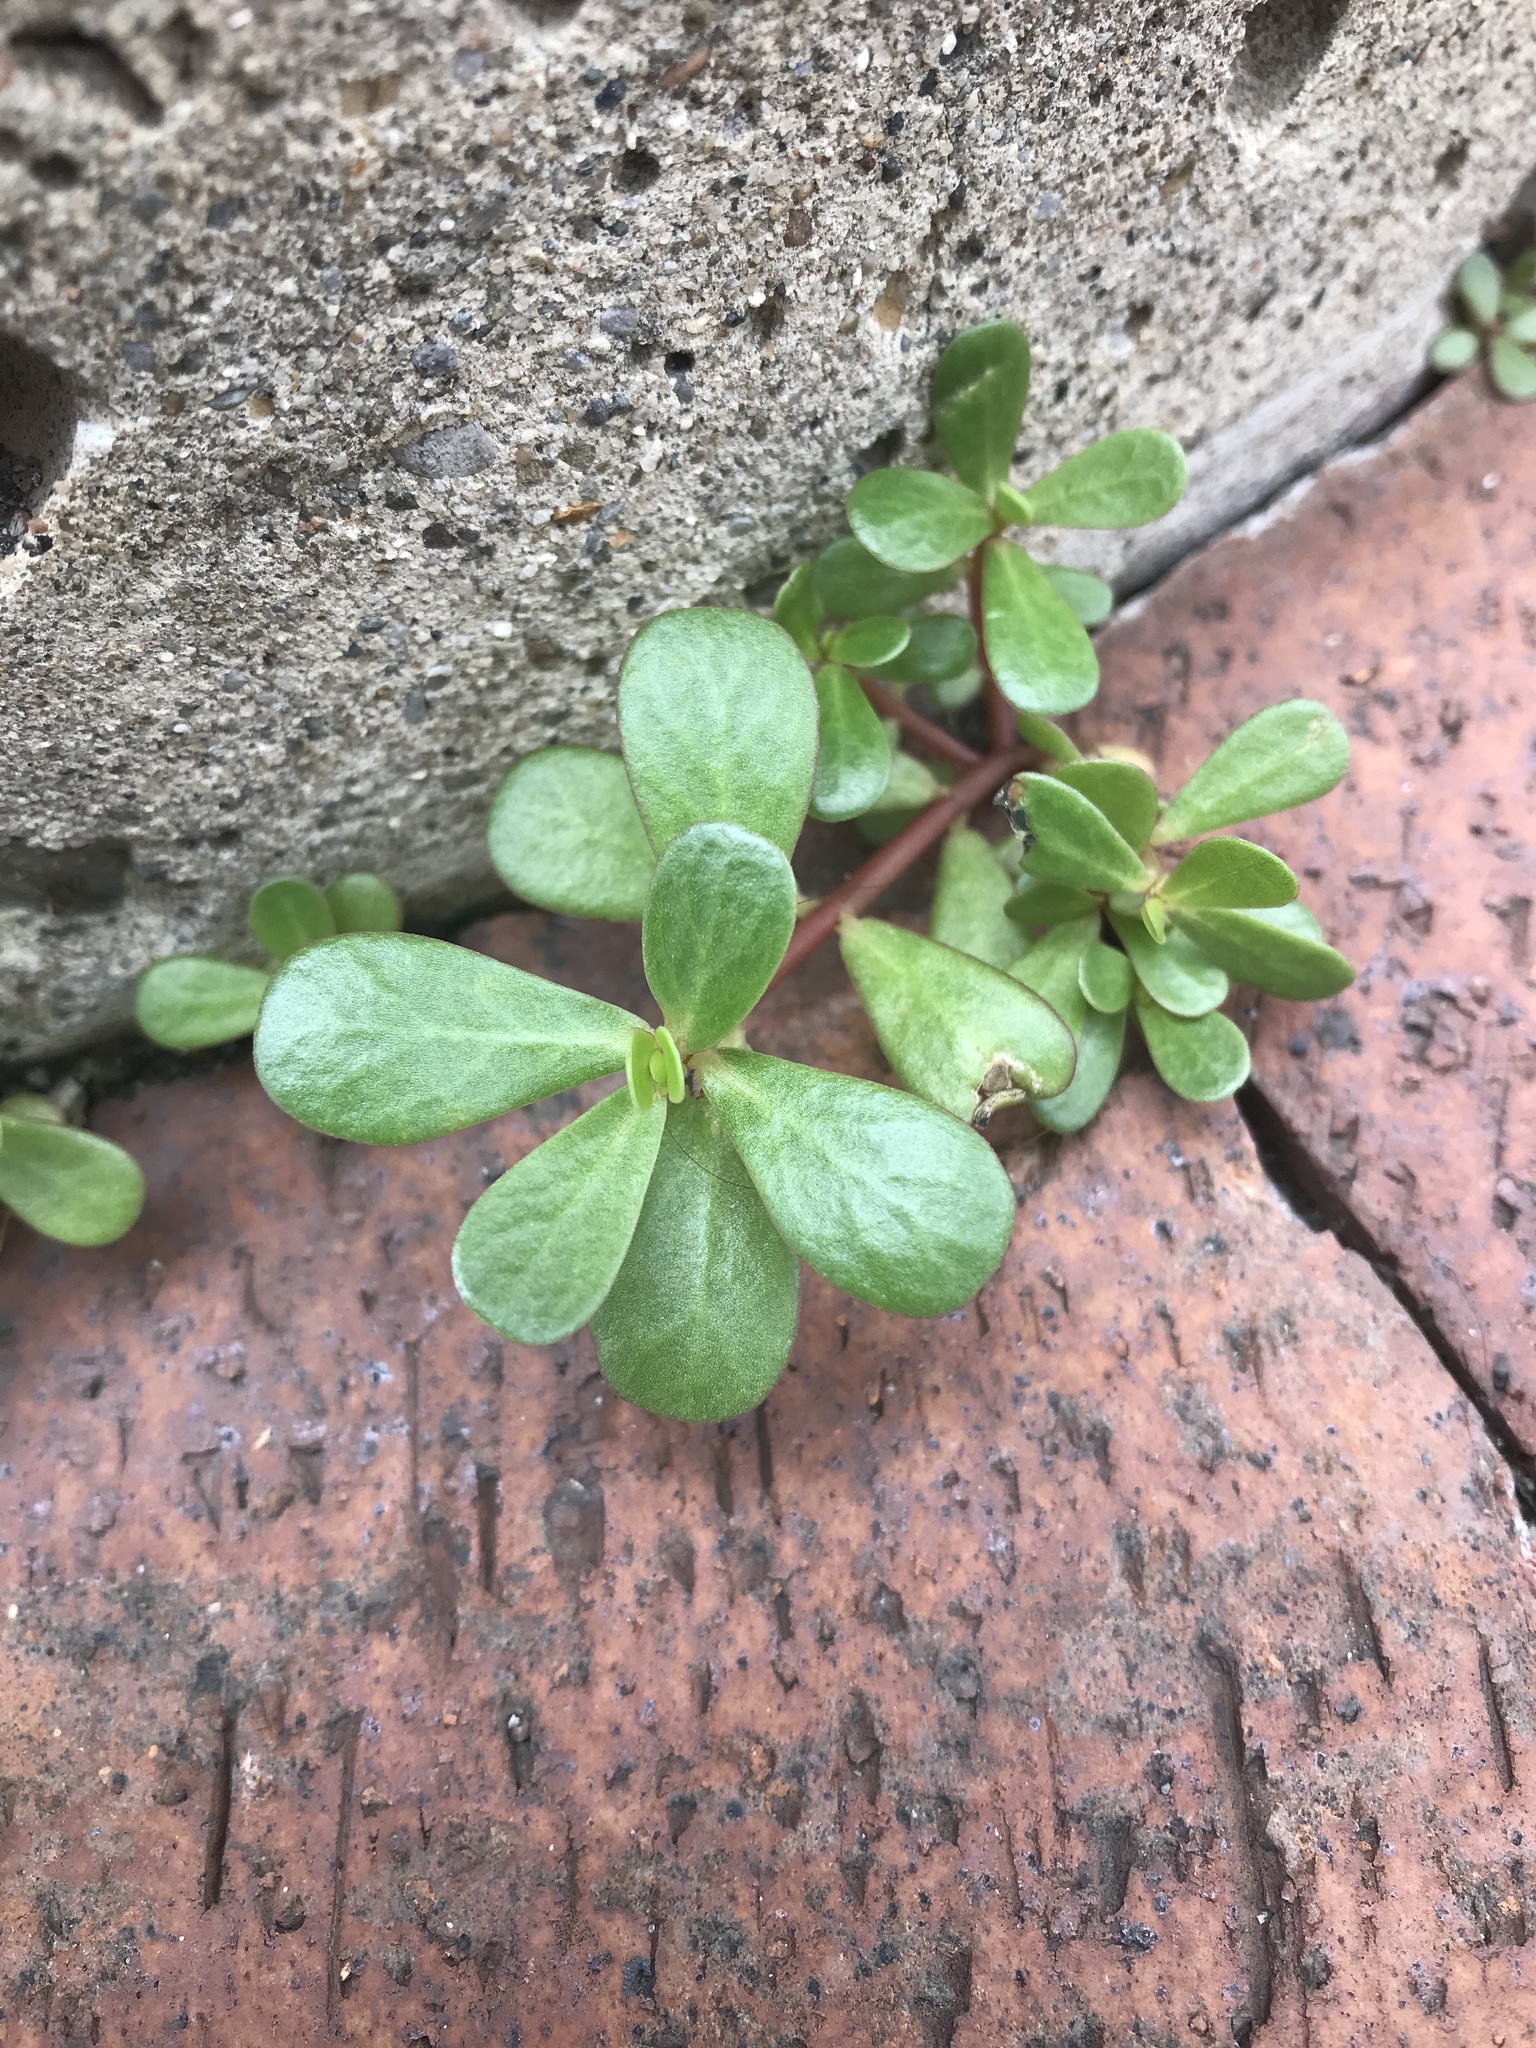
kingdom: Plantae
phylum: Tracheophyta
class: Magnoliopsida
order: Caryophyllales
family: Portulacaceae
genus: Portulaca
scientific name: Portulaca oleracea
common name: Common purslane
